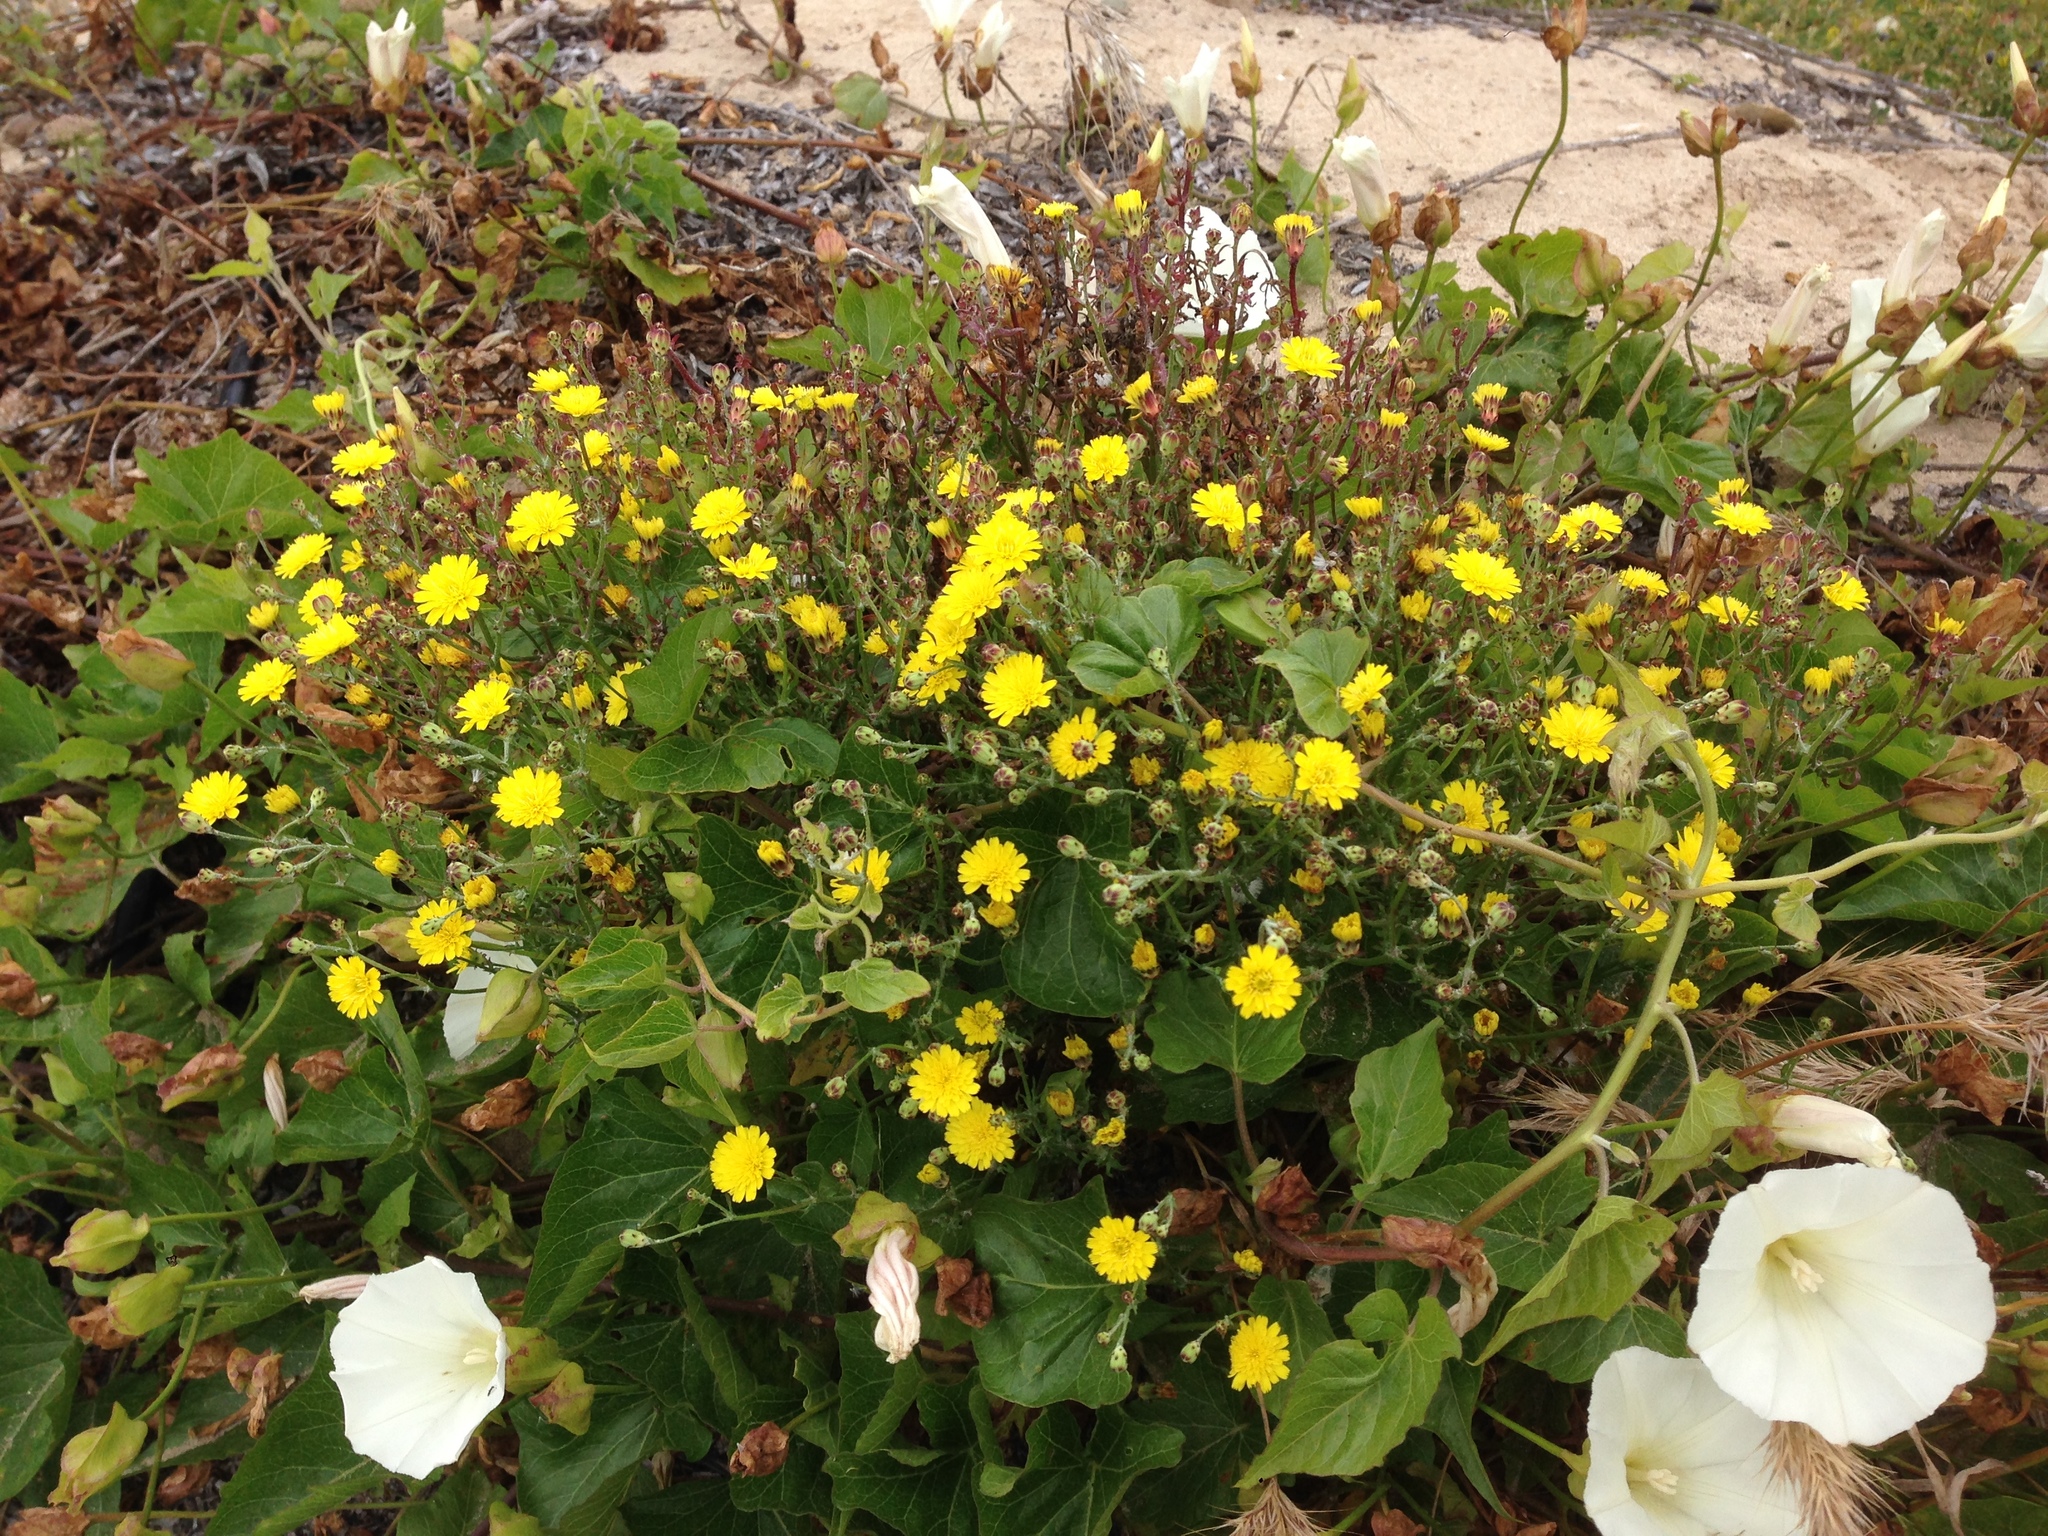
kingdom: Plantae
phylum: Tracheophyta
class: Magnoliopsida
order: Solanales
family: Convolvulaceae
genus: Calystegia
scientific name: Calystegia macrostegia
